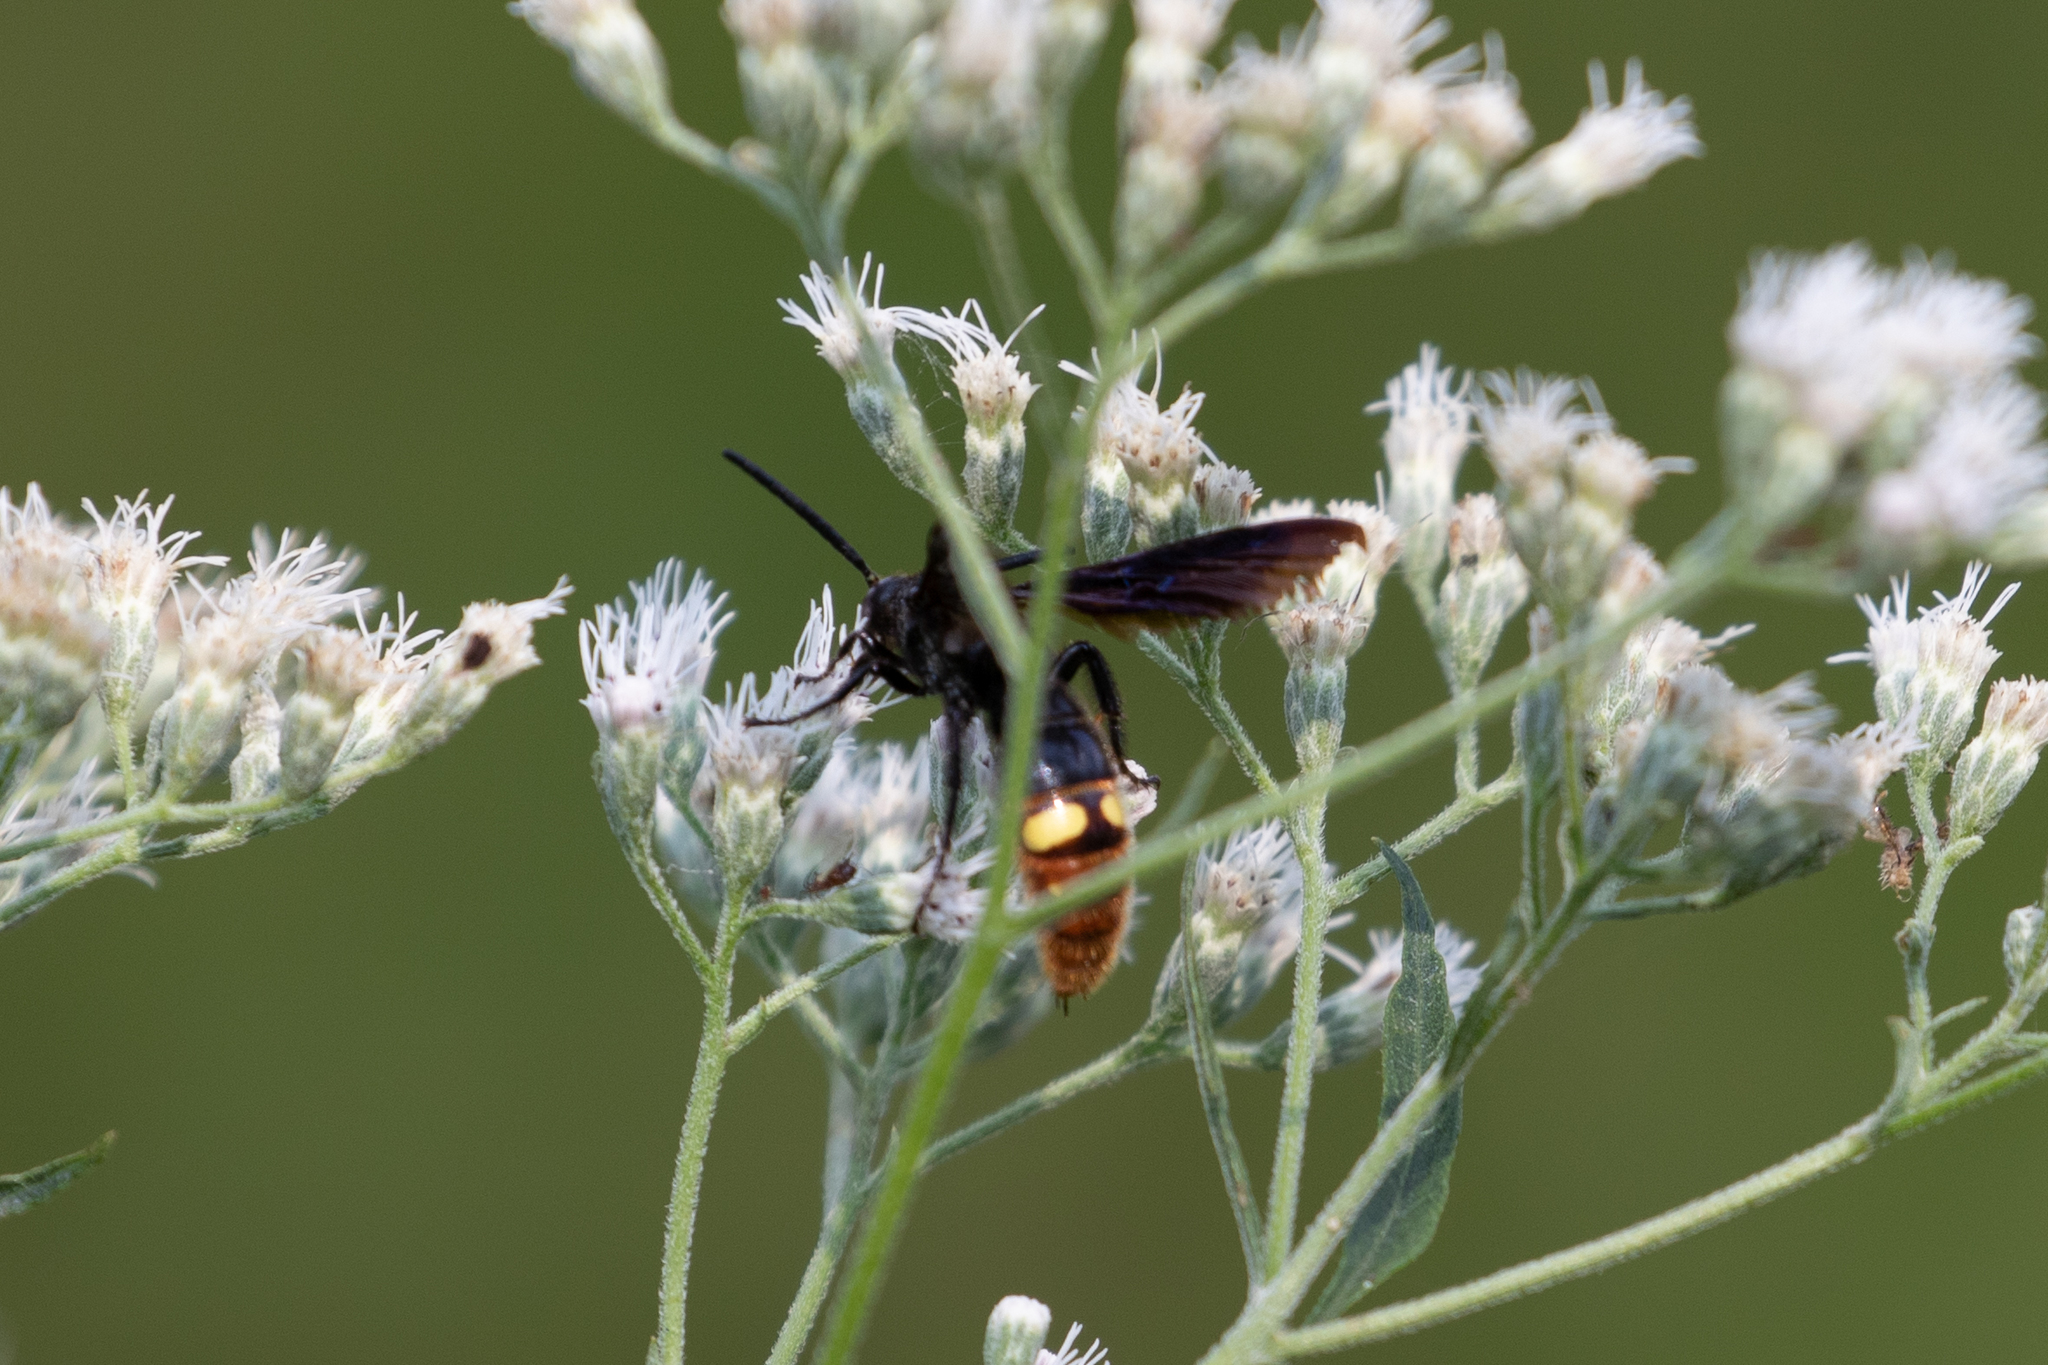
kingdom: Animalia
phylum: Arthropoda
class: Insecta
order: Hymenoptera
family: Scoliidae
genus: Scolia
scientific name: Scolia dubia
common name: Blue-winged scoliid wasp
